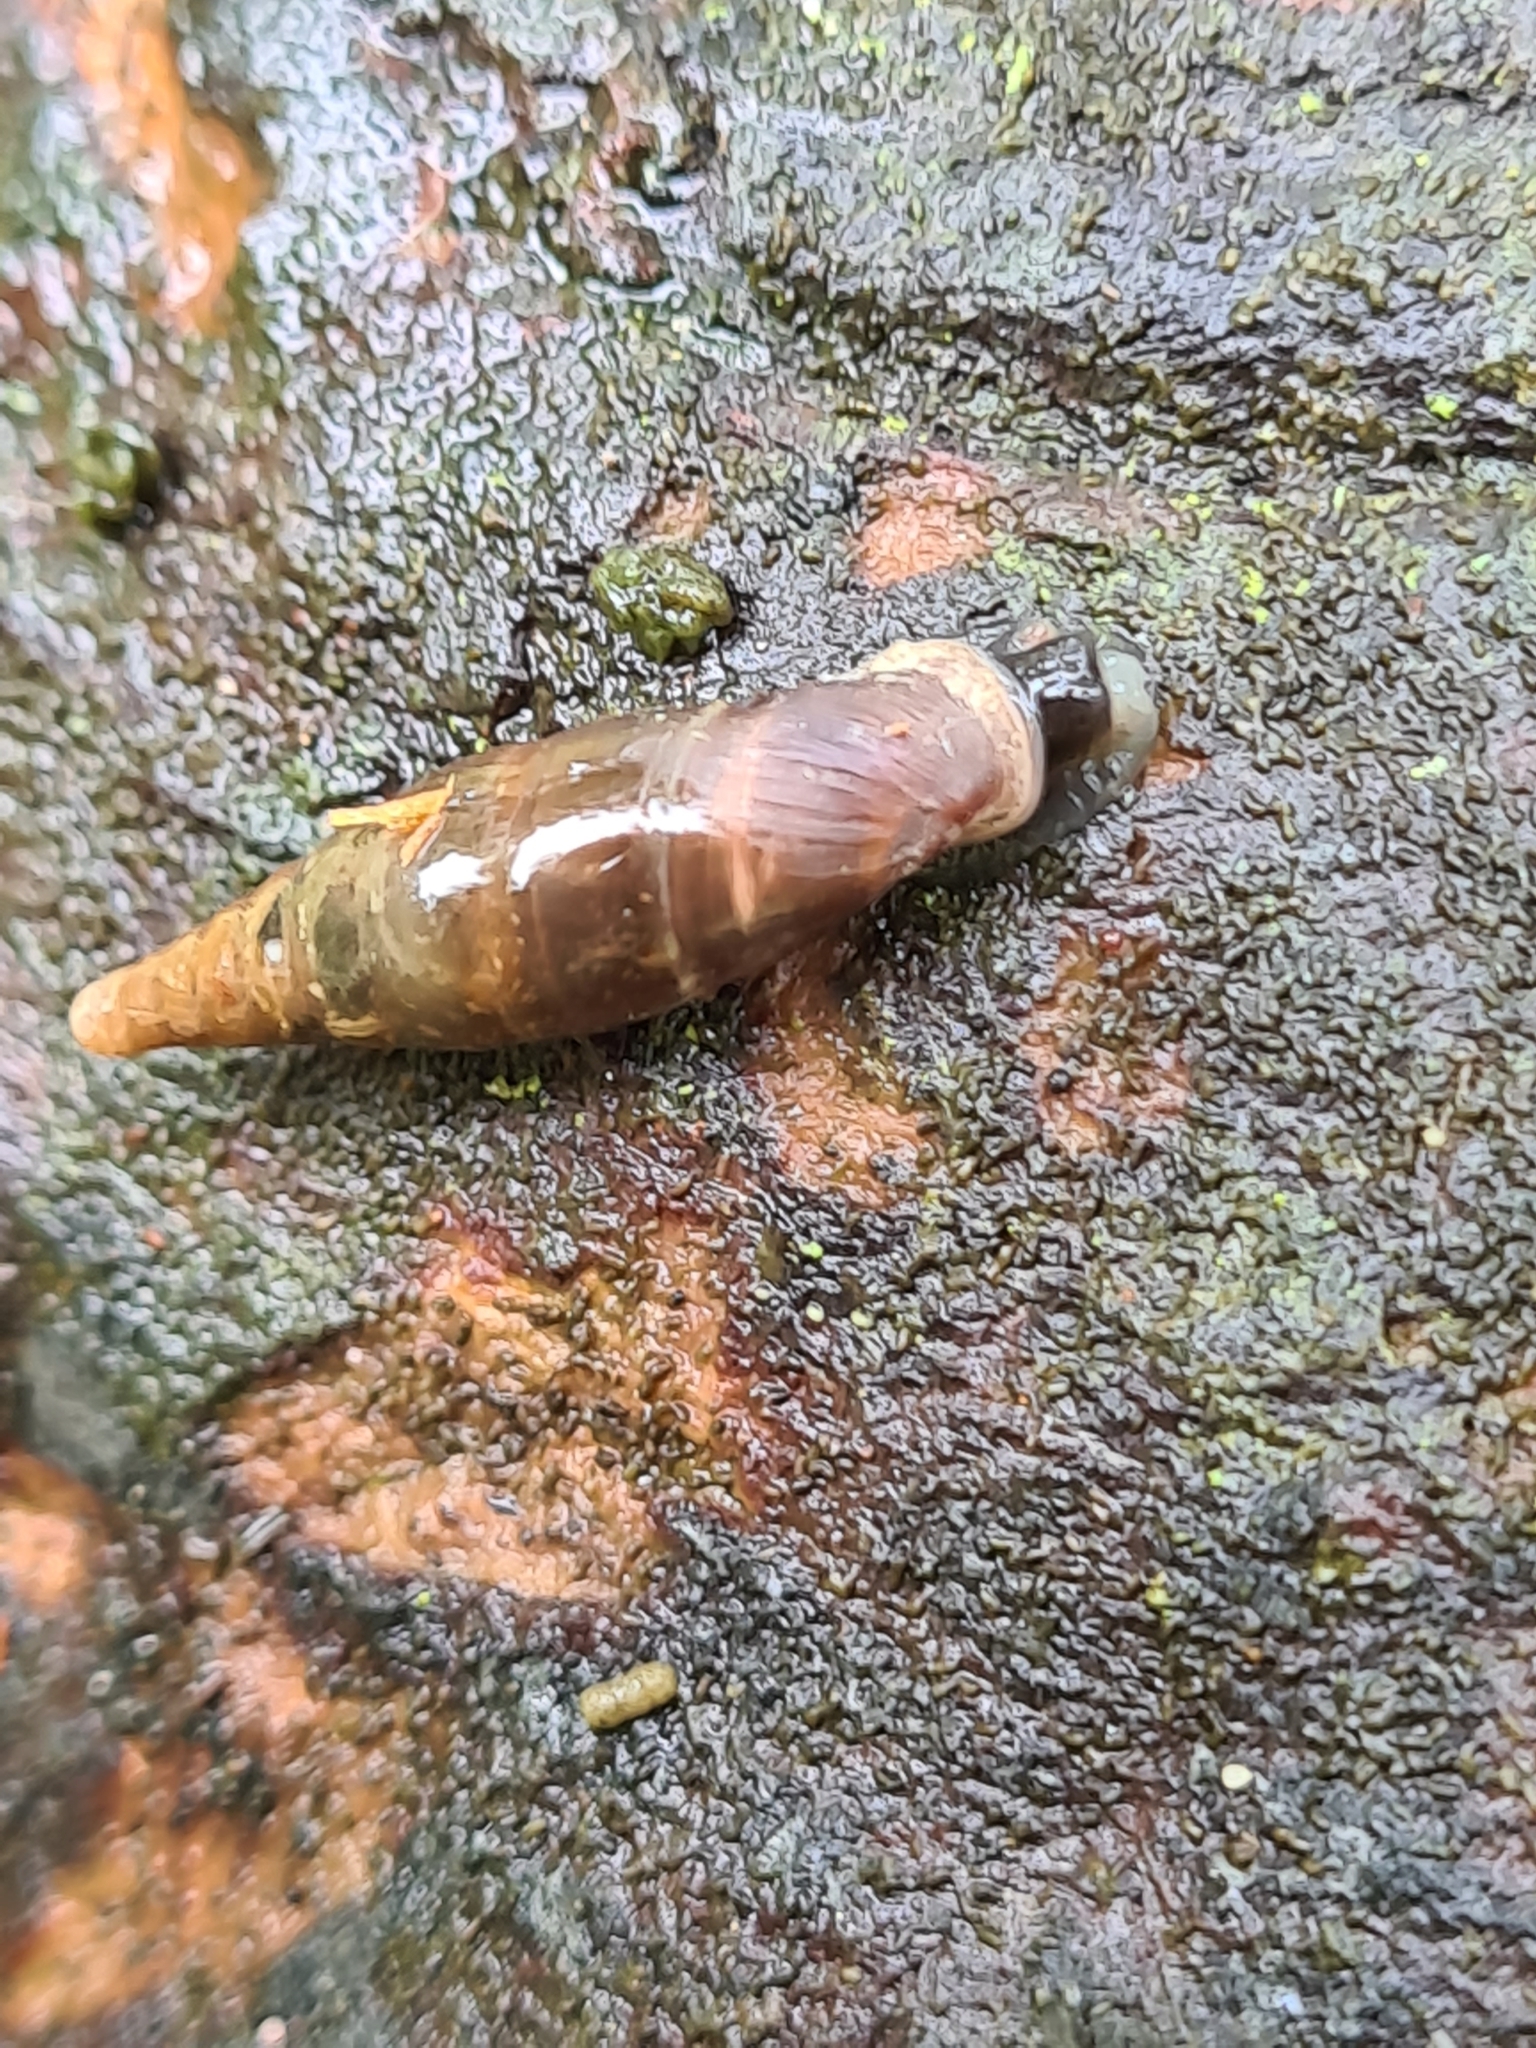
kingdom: Animalia
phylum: Mollusca
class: Gastropoda
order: Stylommatophora
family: Clausiliidae
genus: Cochlodina
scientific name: Cochlodina laminata
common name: Plaited door snail
